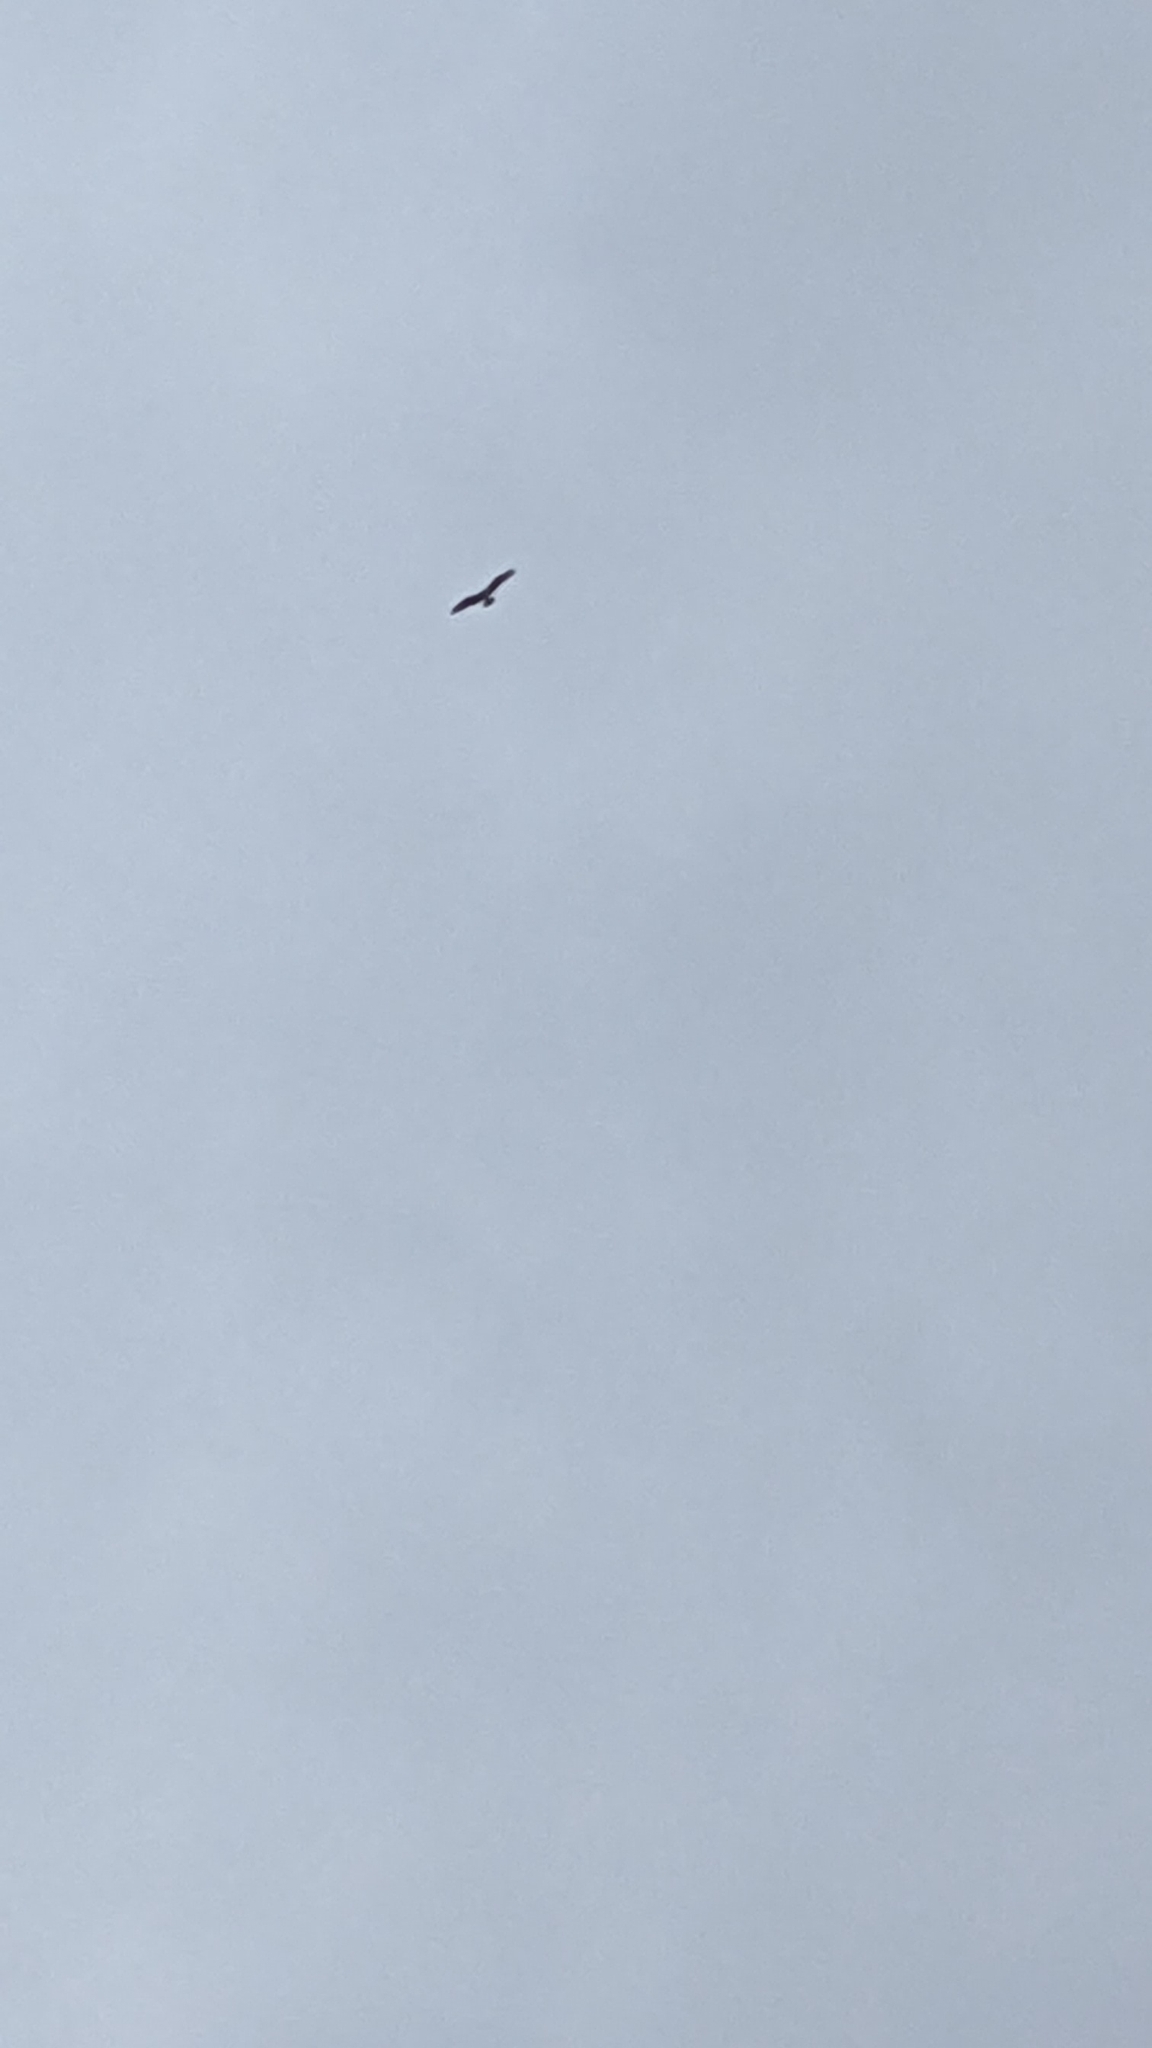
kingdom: Animalia
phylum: Chordata
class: Aves
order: Accipitriformes
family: Pandionidae
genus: Pandion
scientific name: Pandion haliaetus
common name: Osprey
